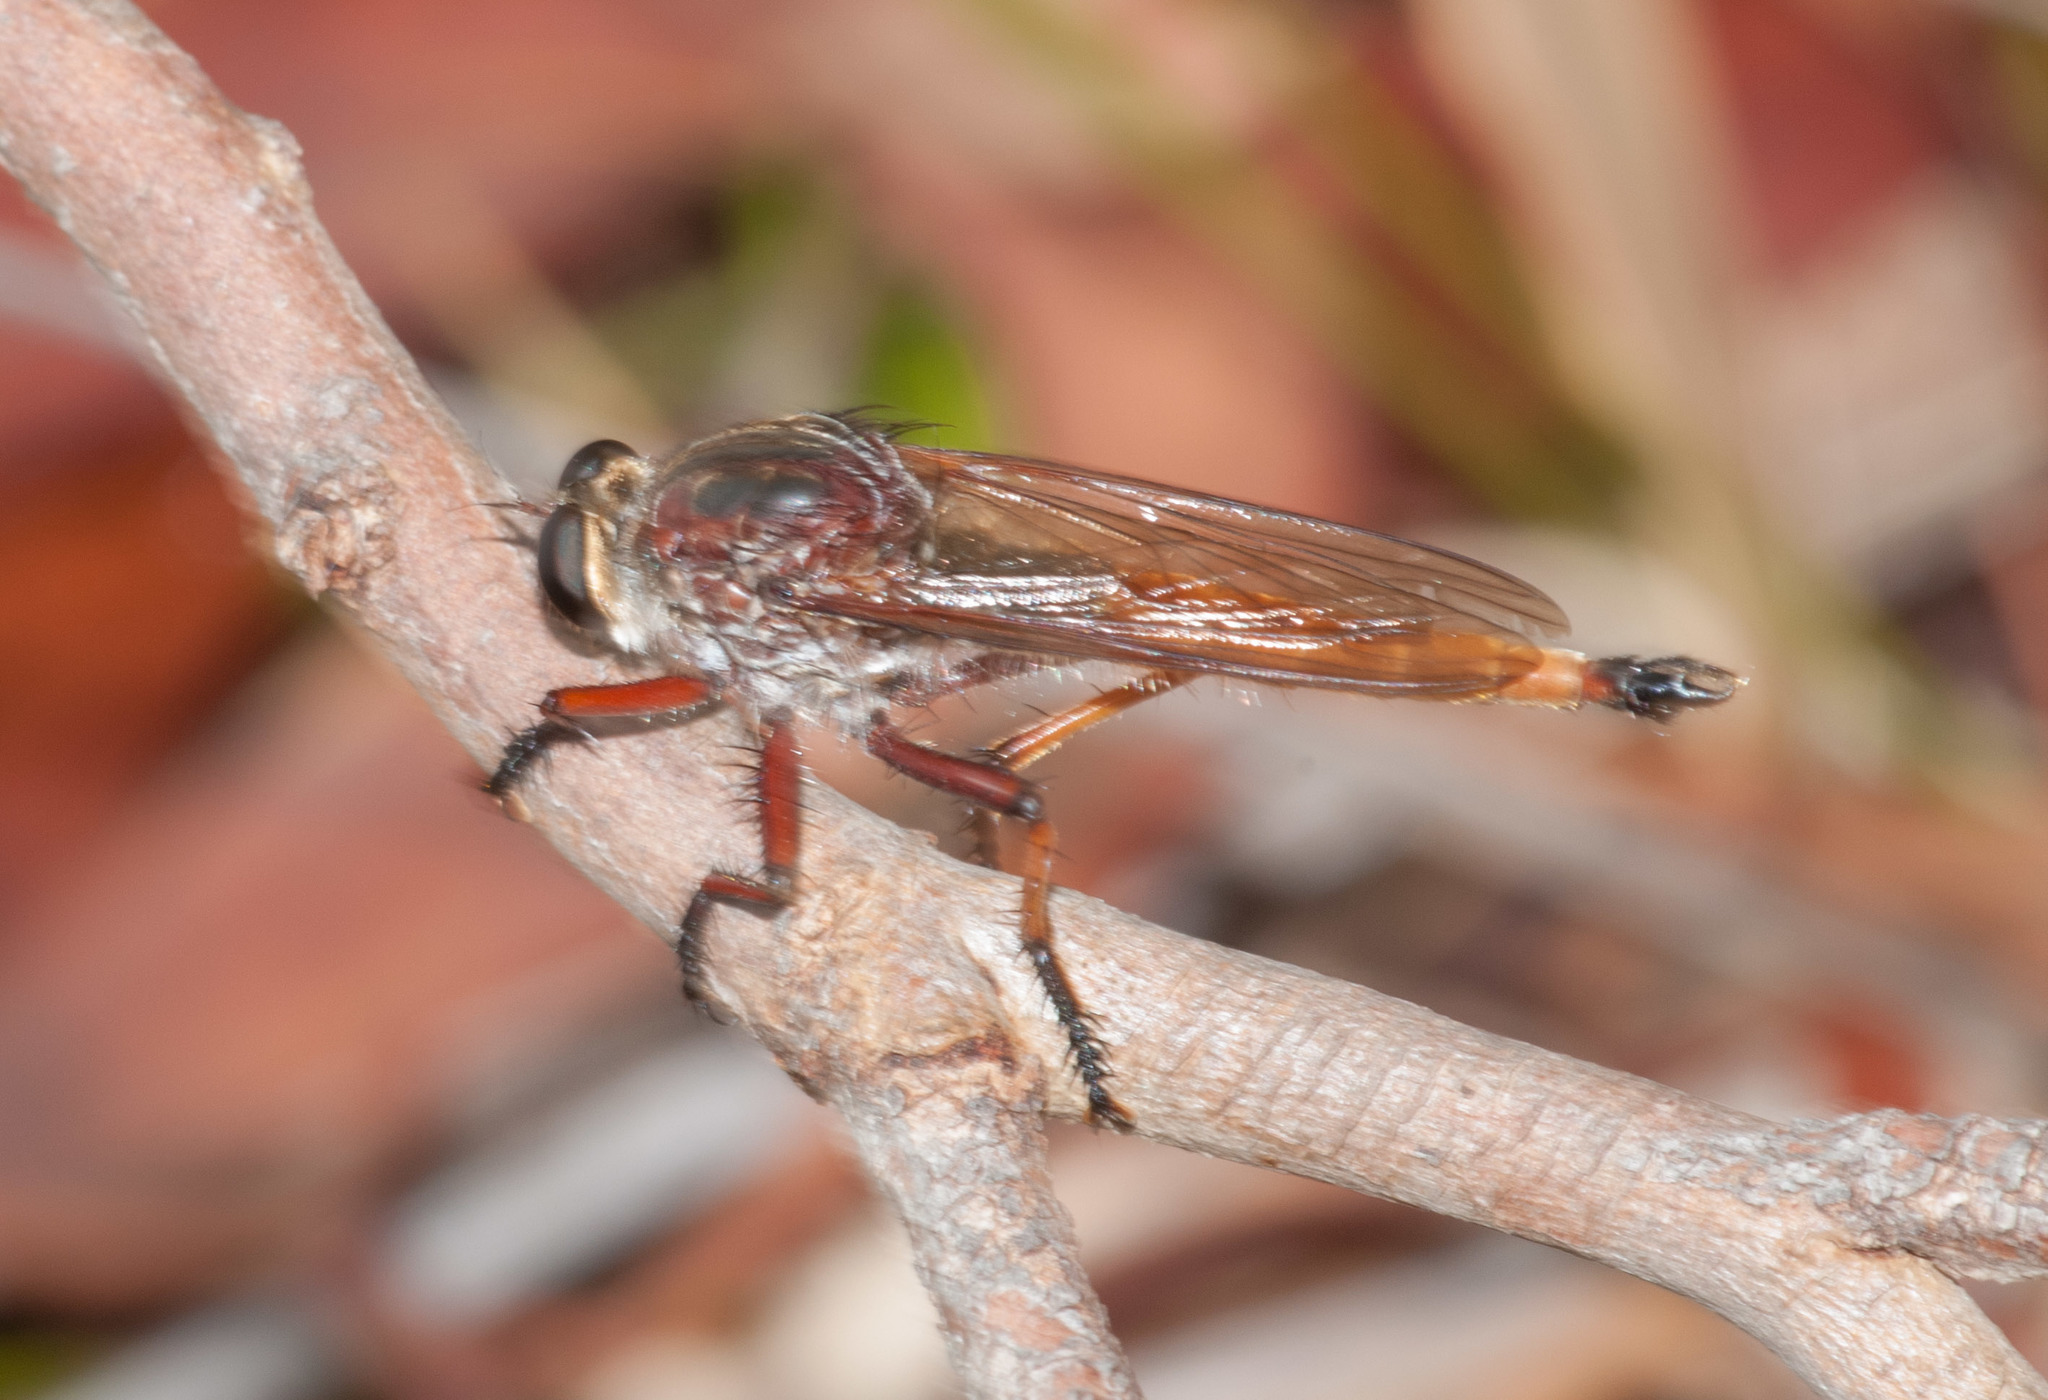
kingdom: Animalia
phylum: Arthropoda
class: Insecta
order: Diptera
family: Asilidae
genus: Colepia
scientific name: Colepia rufiventris
